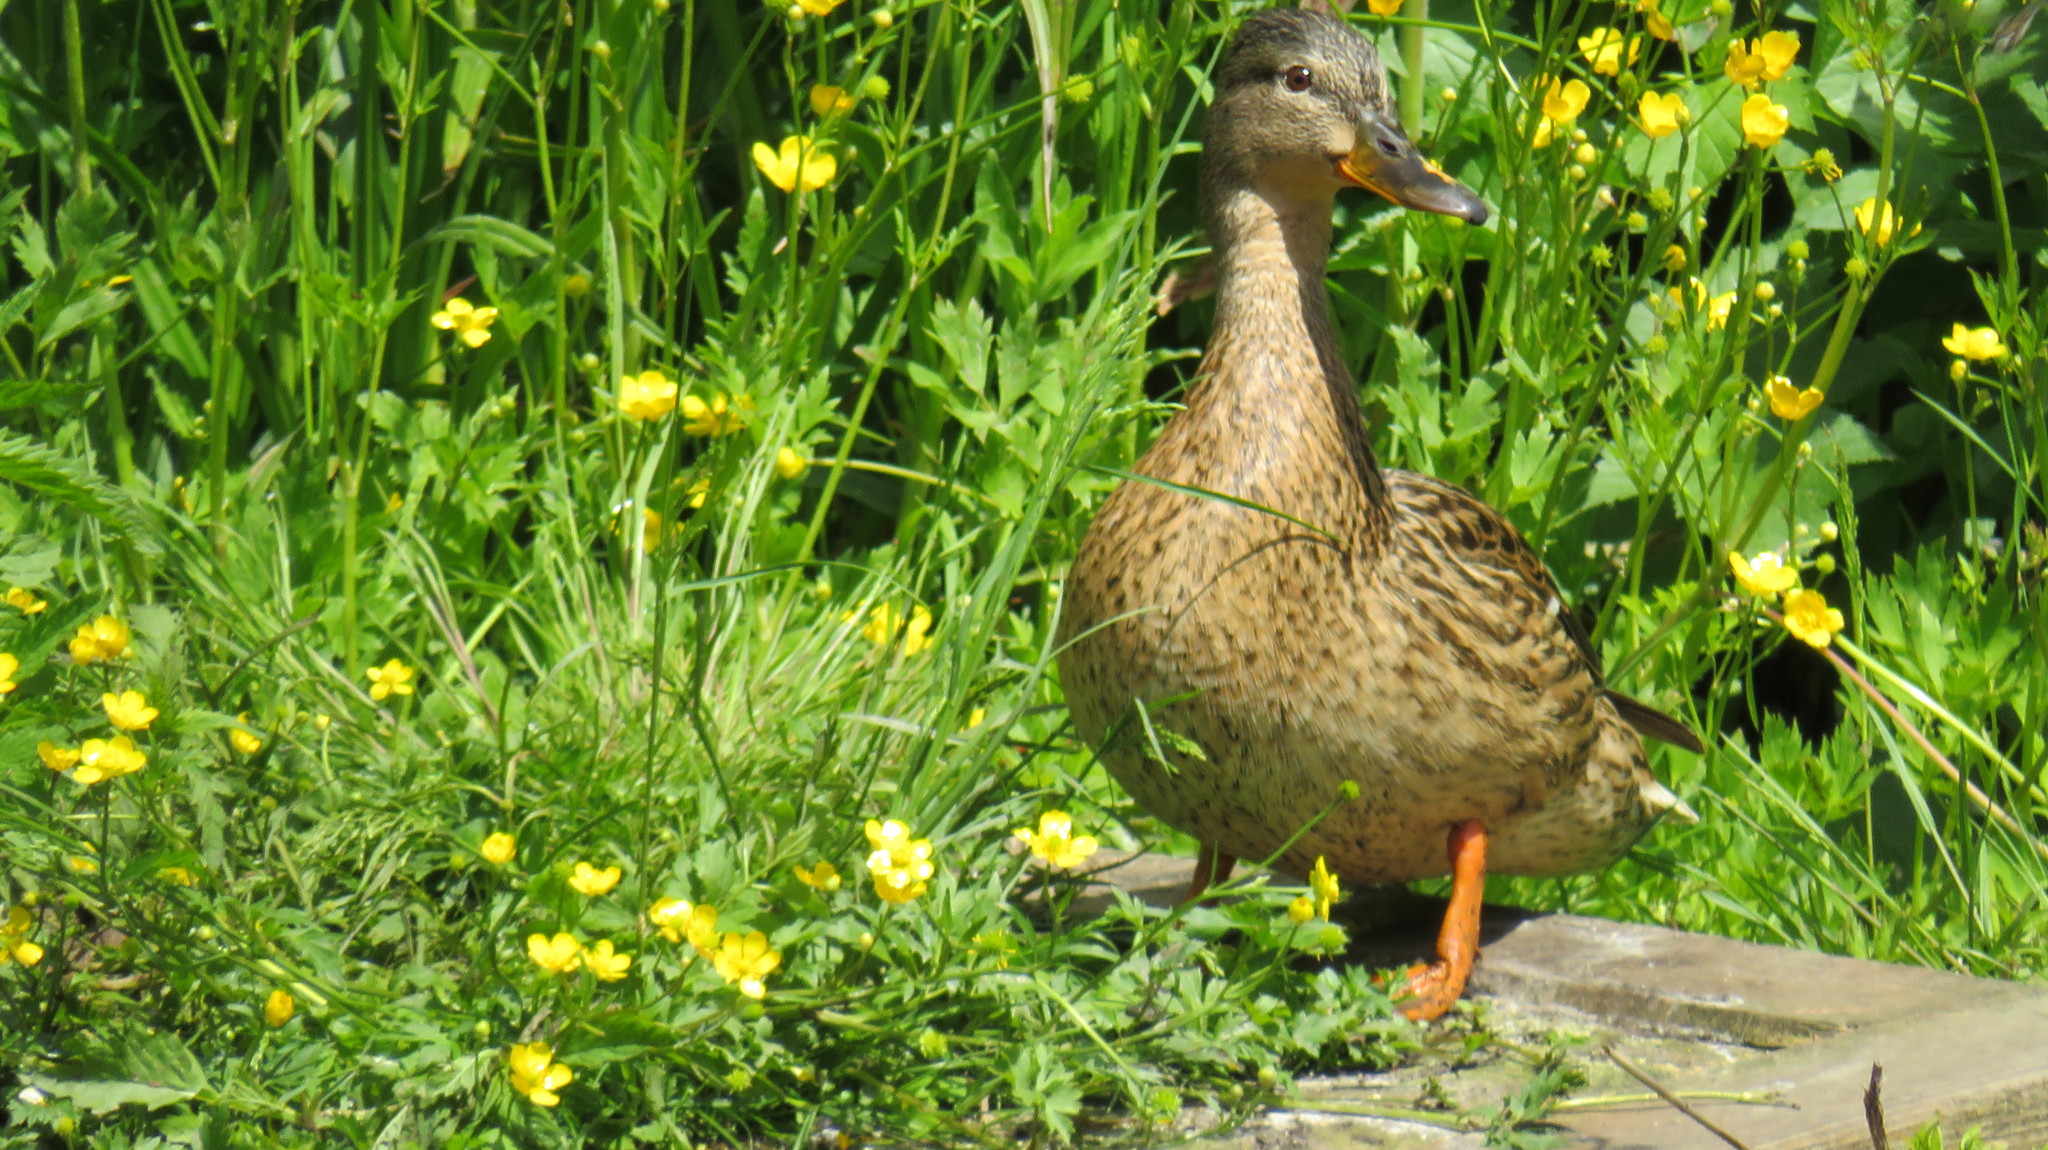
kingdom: Animalia
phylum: Chordata
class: Aves
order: Anseriformes
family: Anatidae
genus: Anas
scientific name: Anas platyrhynchos
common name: Mallard
